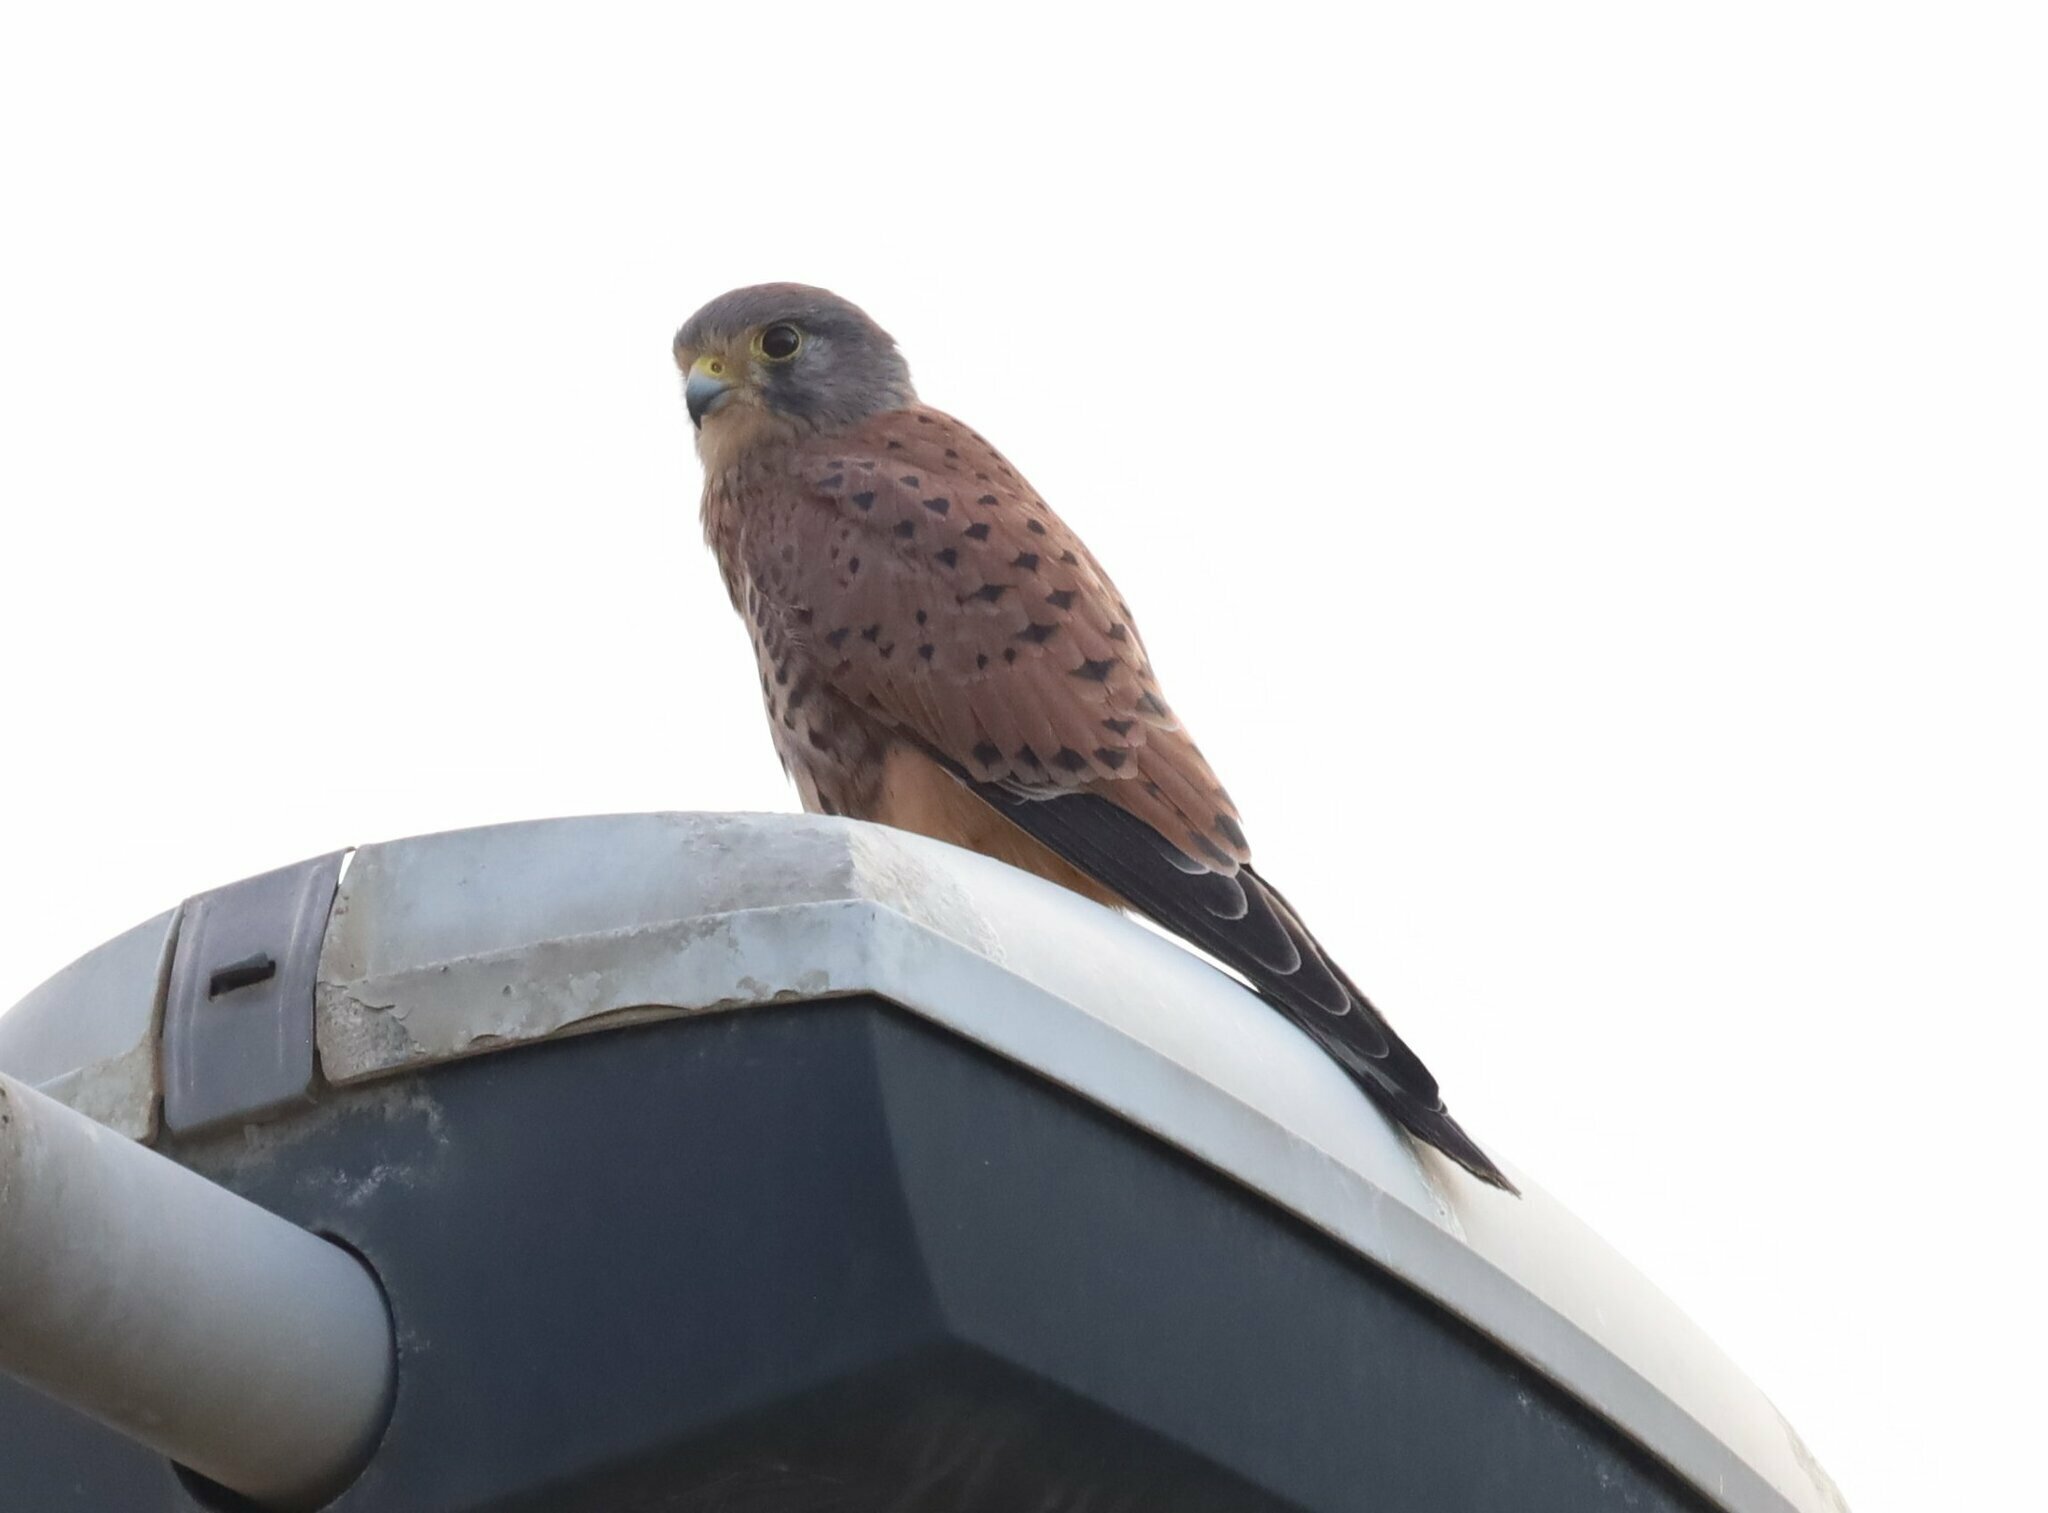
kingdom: Animalia
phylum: Chordata
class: Aves
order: Falconiformes
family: Falconidae
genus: Falco
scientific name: Falco tinnunculus
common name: Common kestrel
